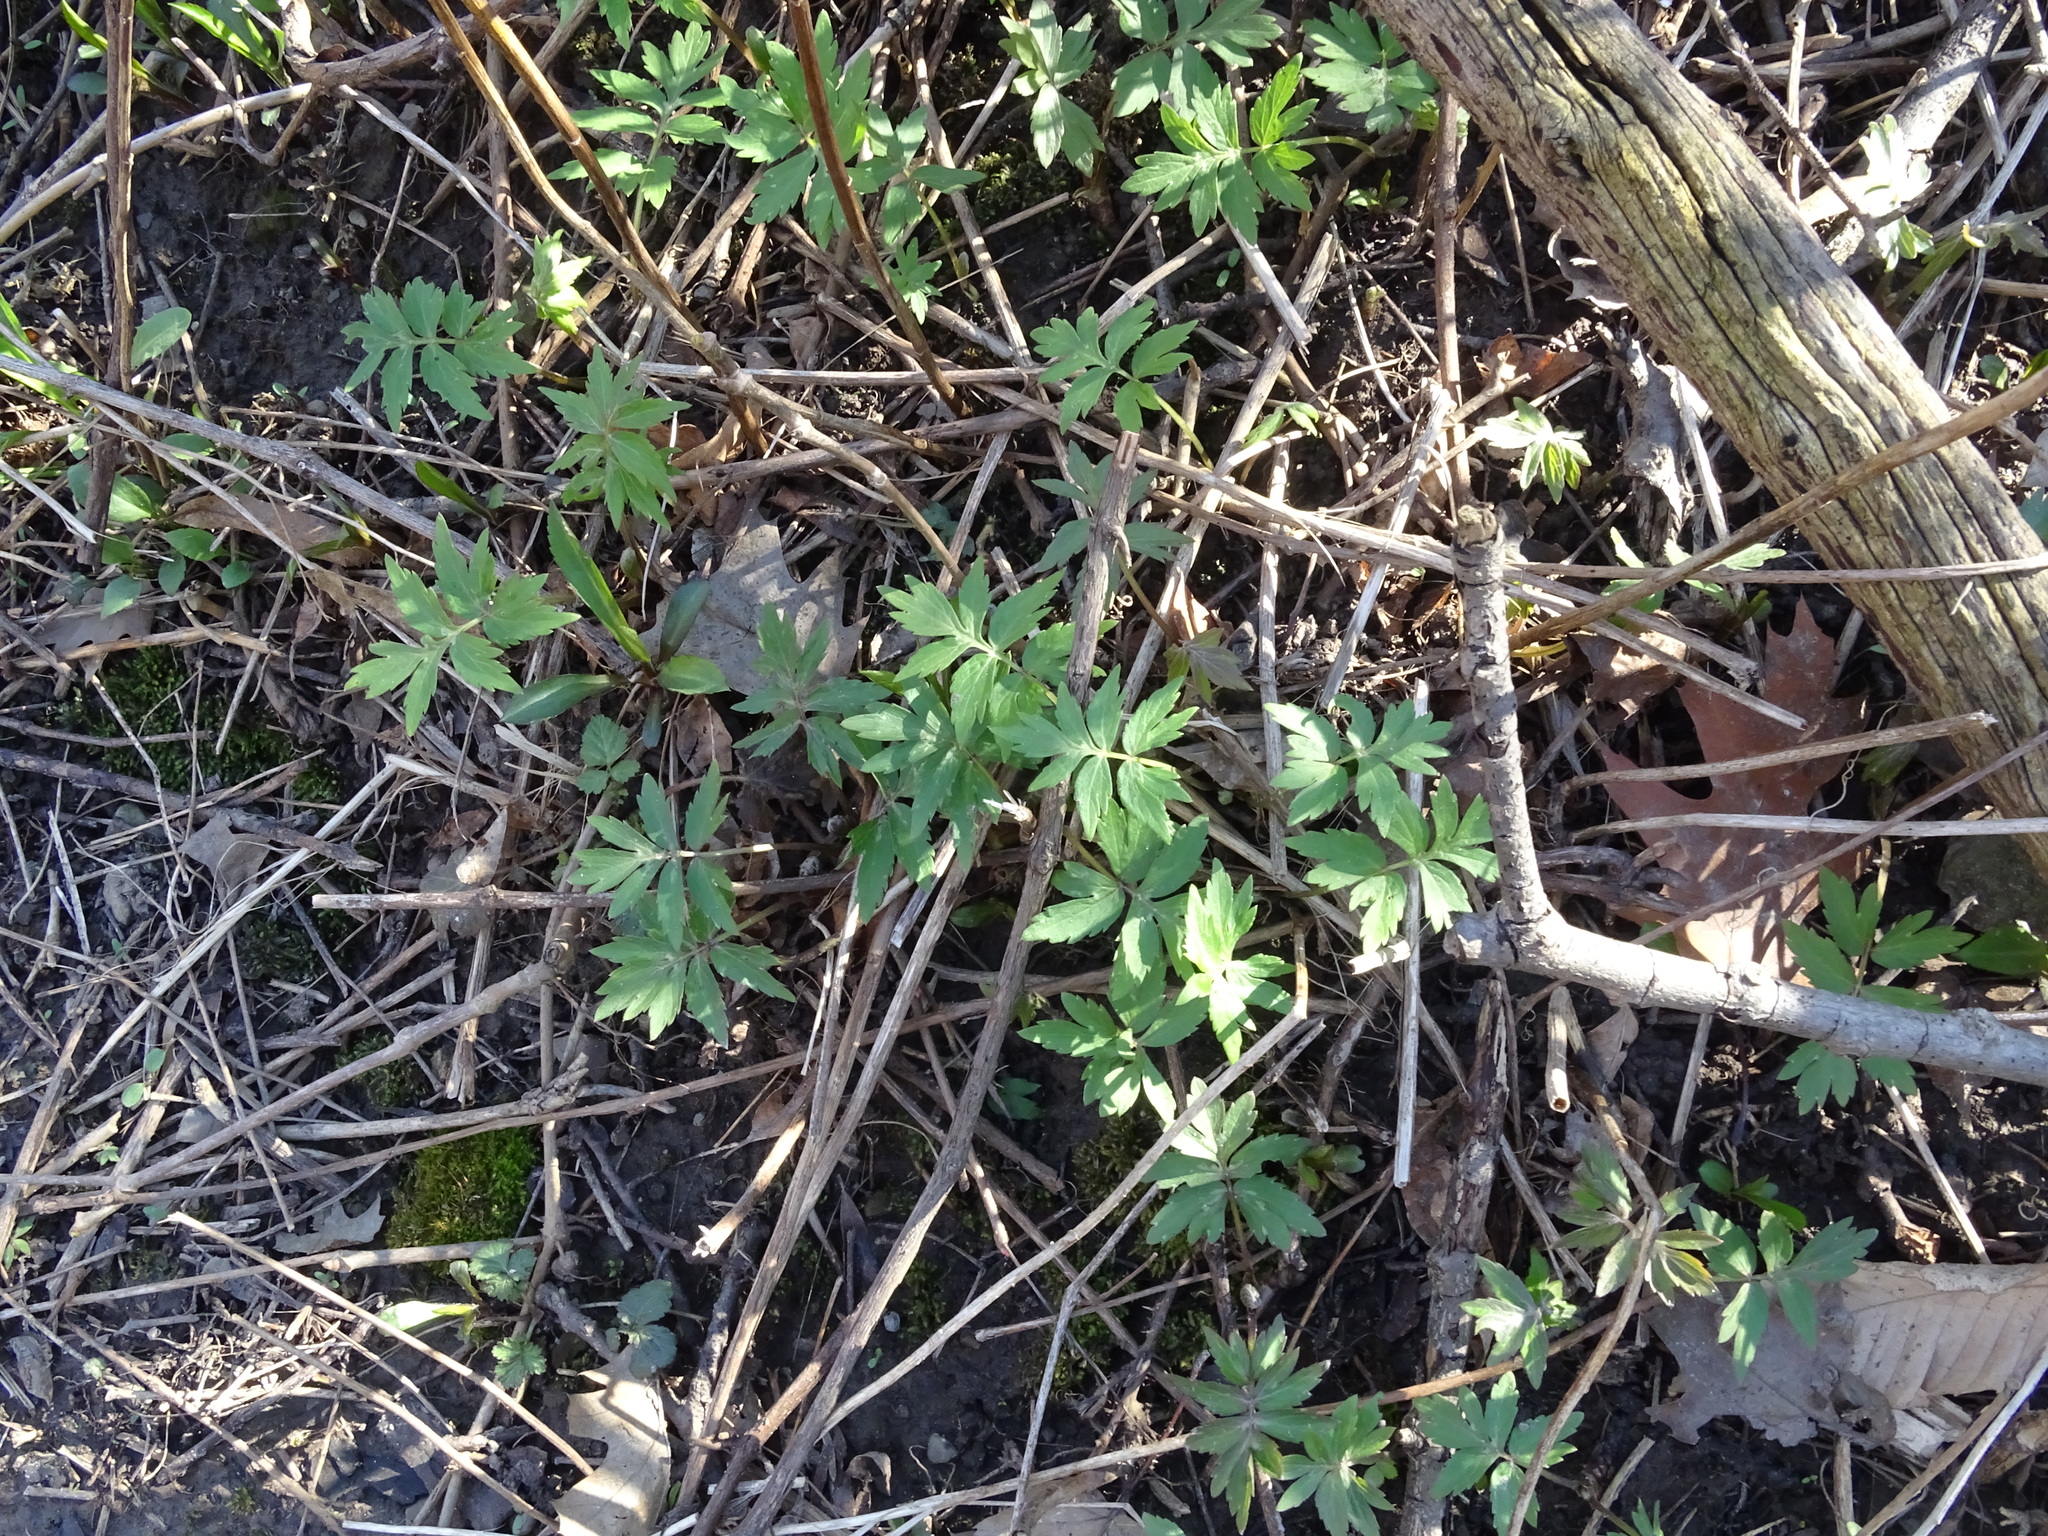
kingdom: Plantae
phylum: Tracheophyta
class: Magnoliopsida
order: Boraginales
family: Hydrophyllaceae
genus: Hydrophyllum
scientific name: Hydrophyllum virginianum
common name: Virginia waterleaf
